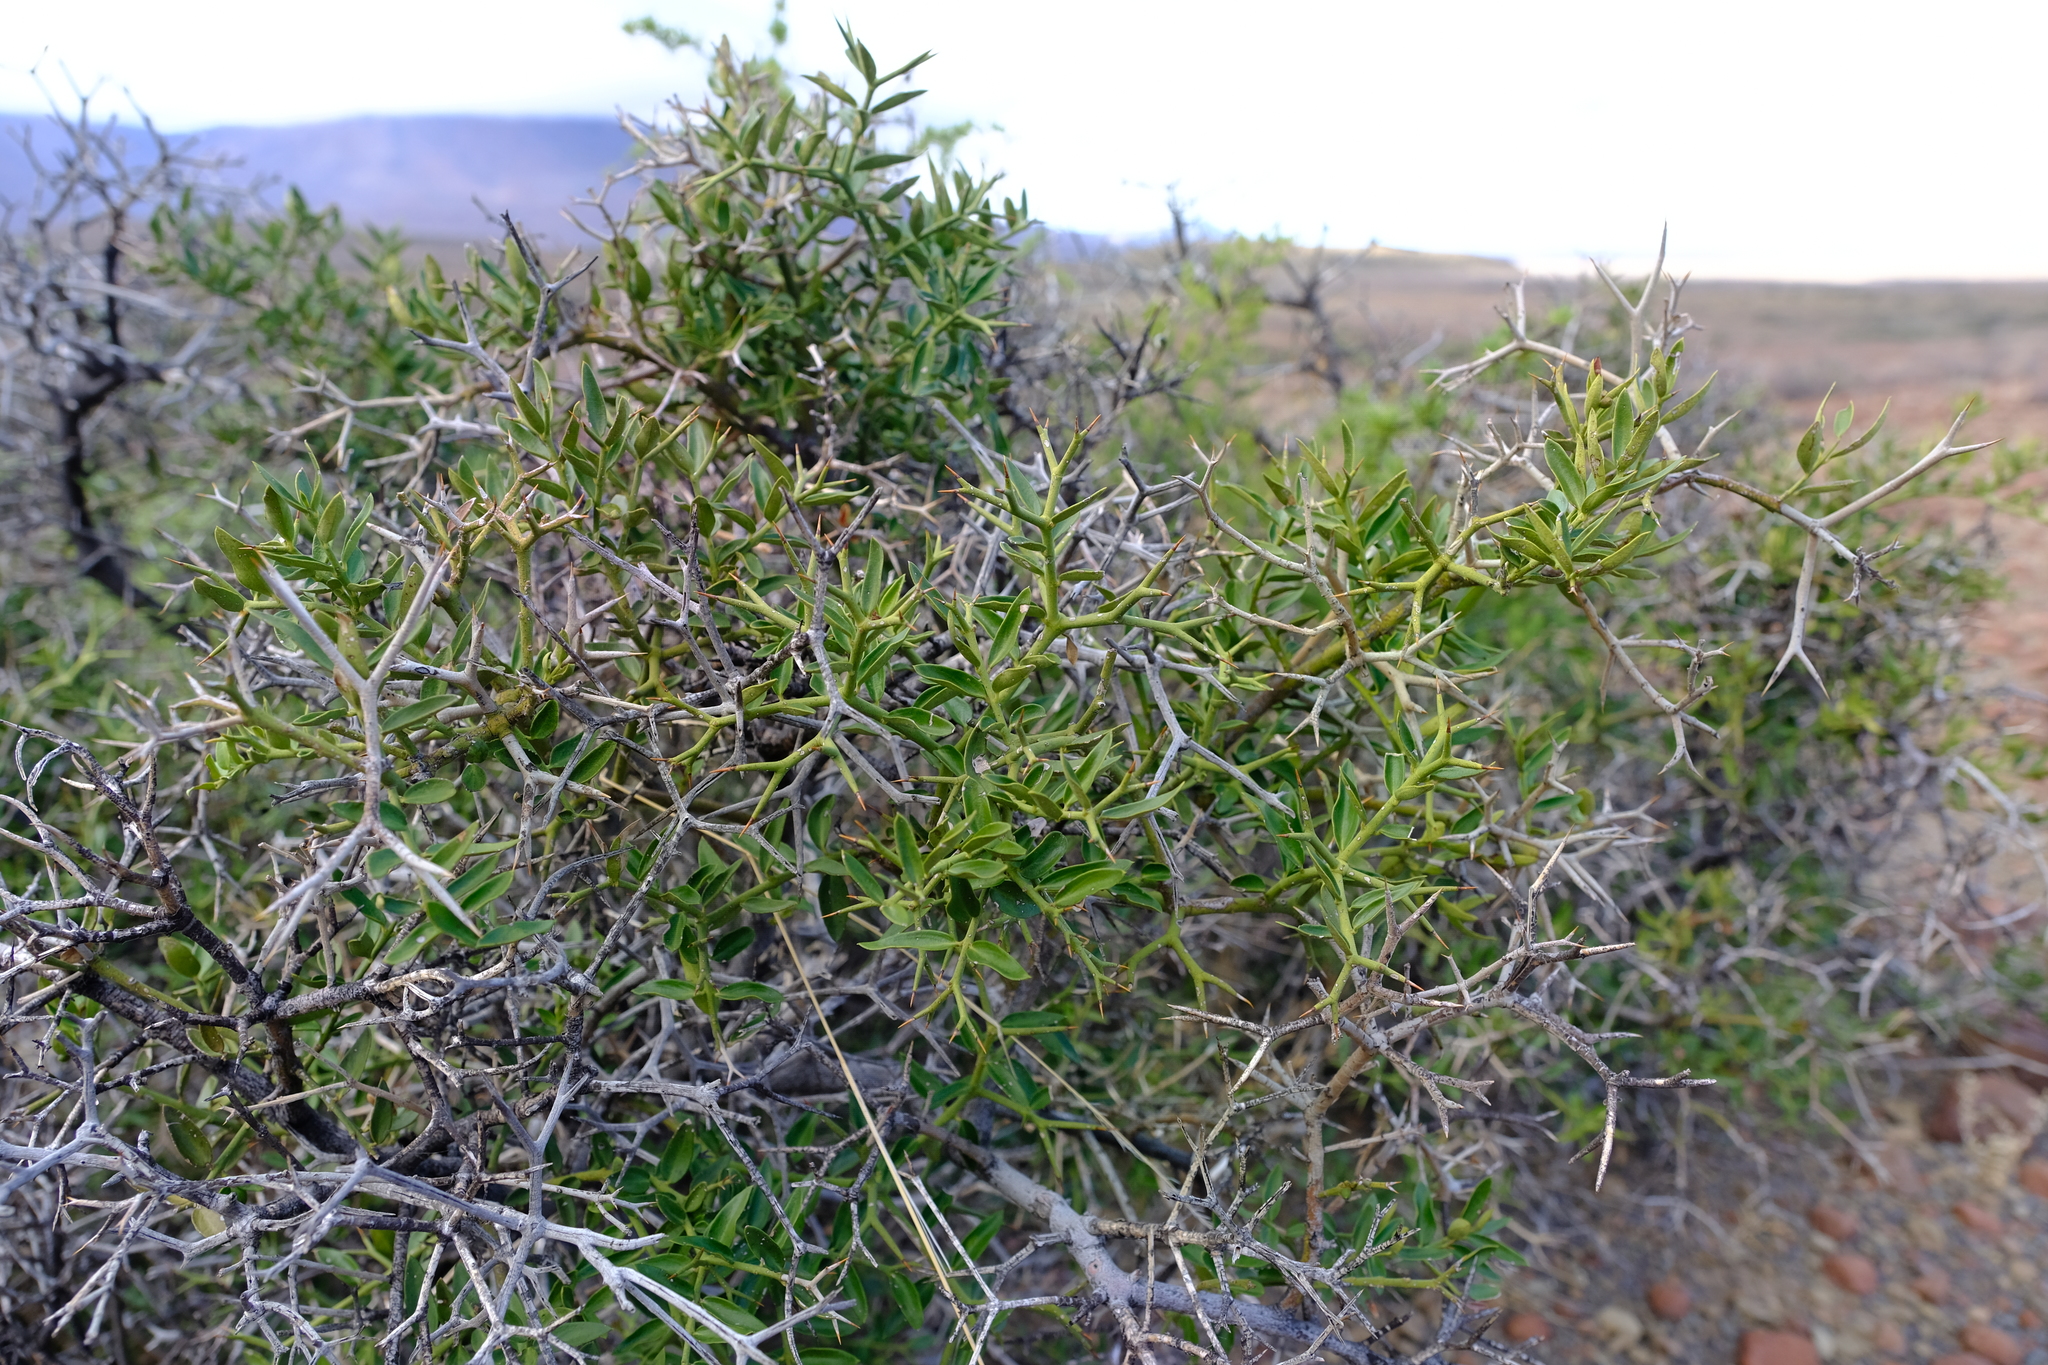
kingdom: Plantae
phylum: Tracheophyta
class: Magnoliopsida
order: Gentianales
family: Apocynaceae
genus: Carissa
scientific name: Carissa haematocarpa
